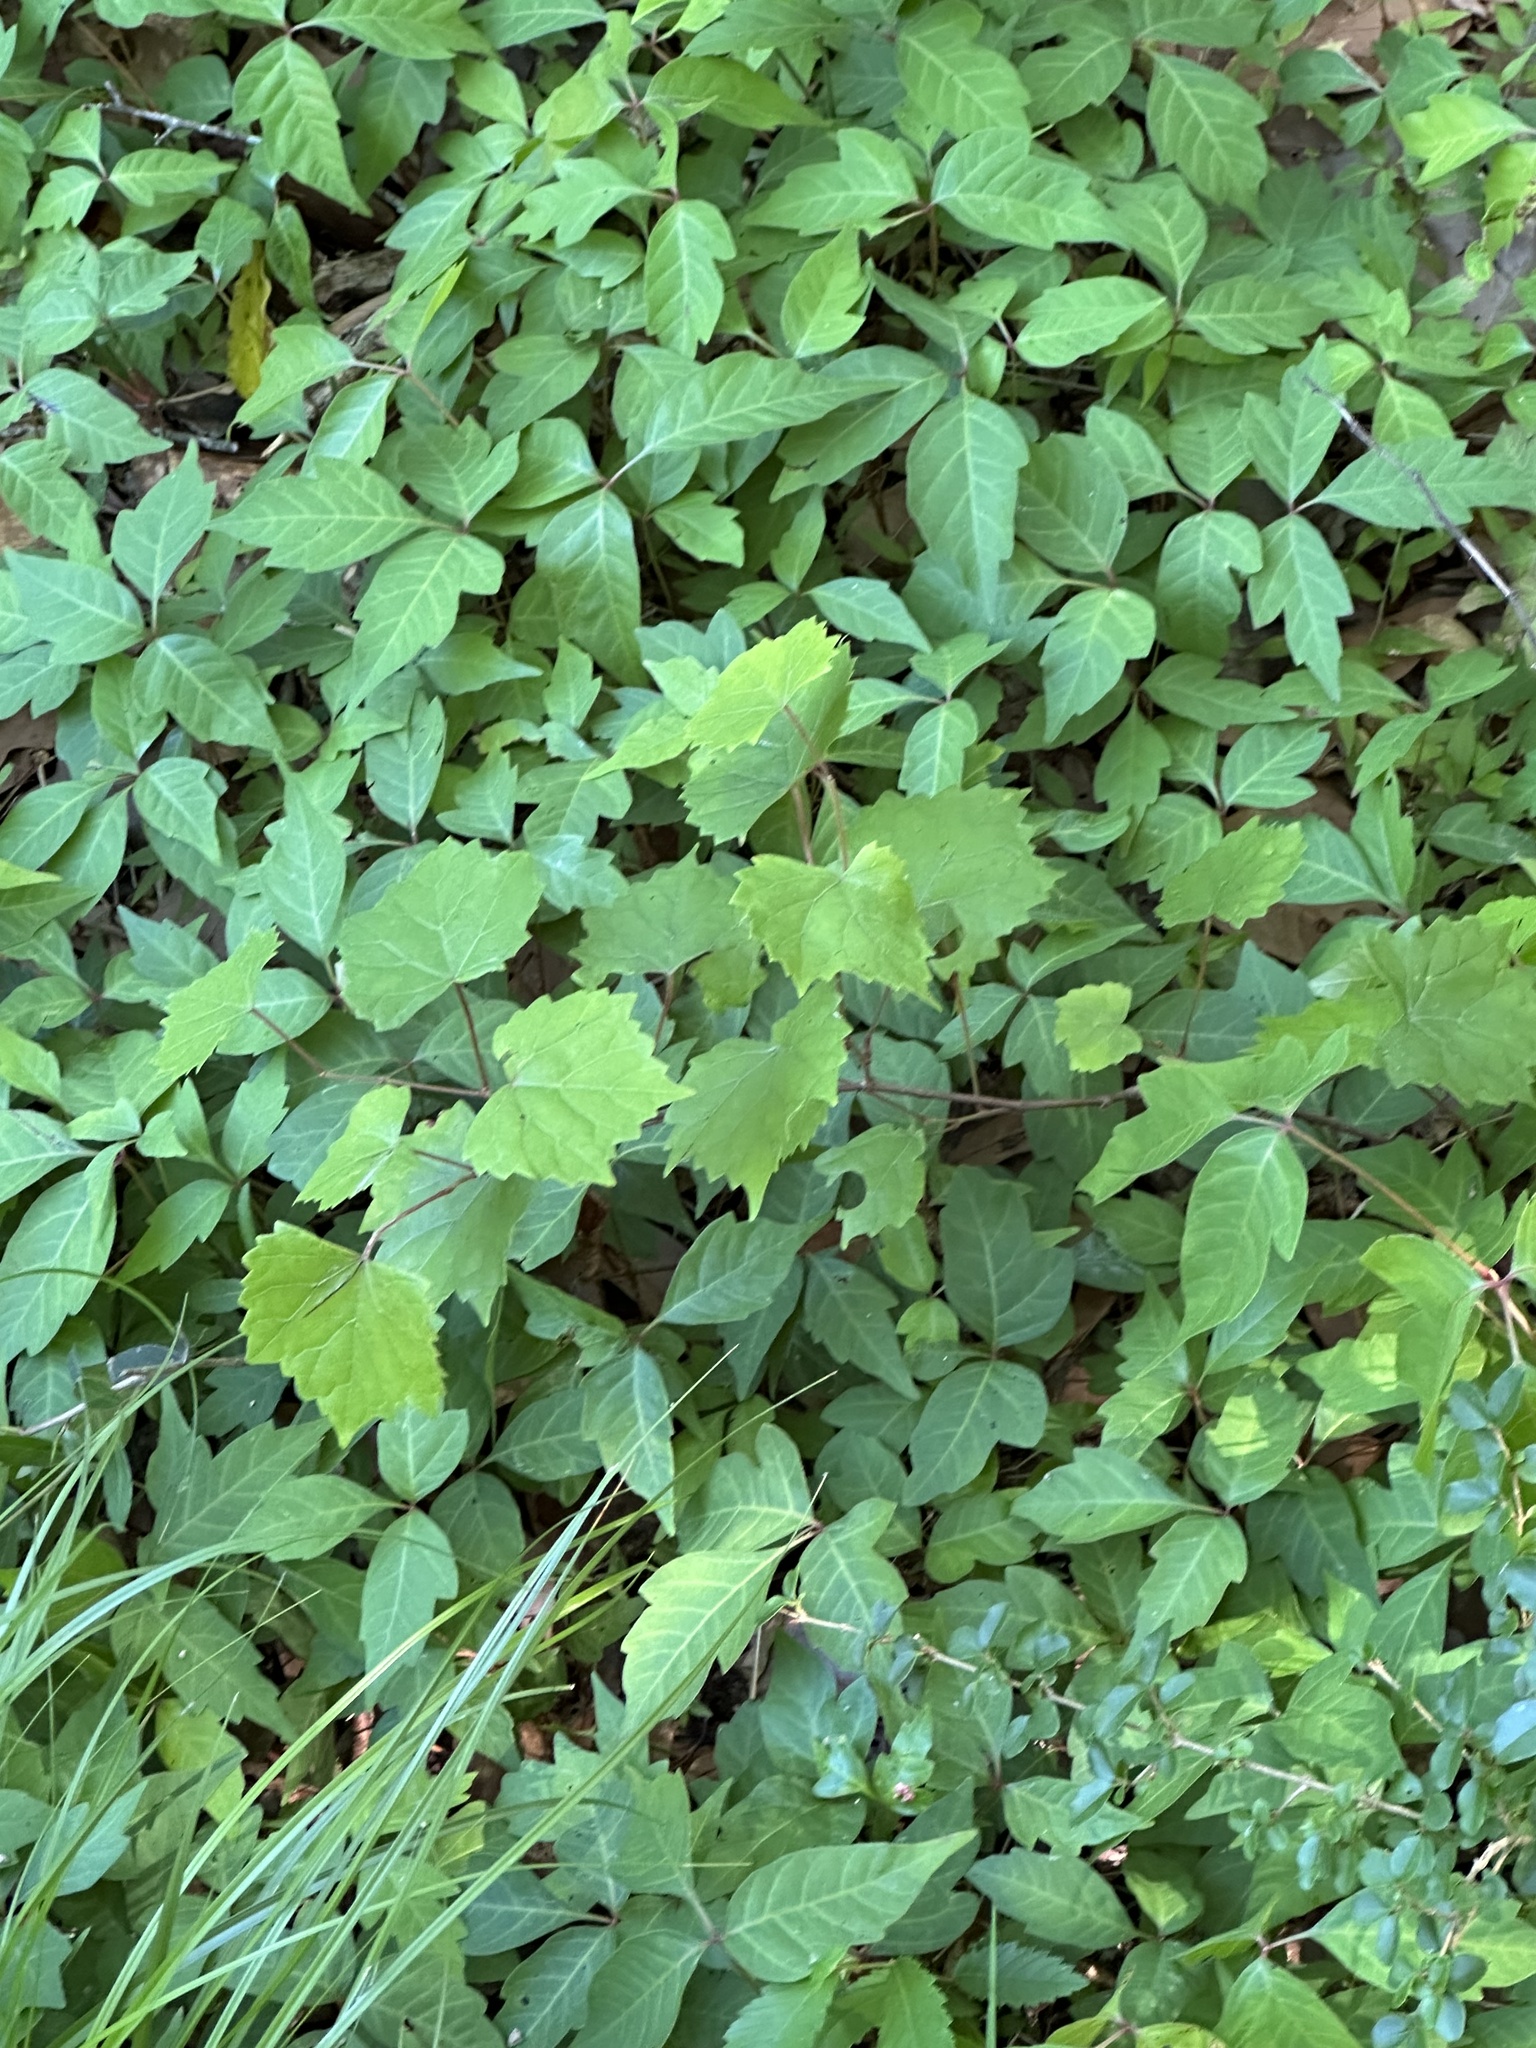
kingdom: Plantae
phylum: Tracheophyta
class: Magnoliopsida
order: Sapindales
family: Anacardiaceae
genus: Toxicodendron
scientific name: Toxicodendron radicans
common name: Poison ivy
